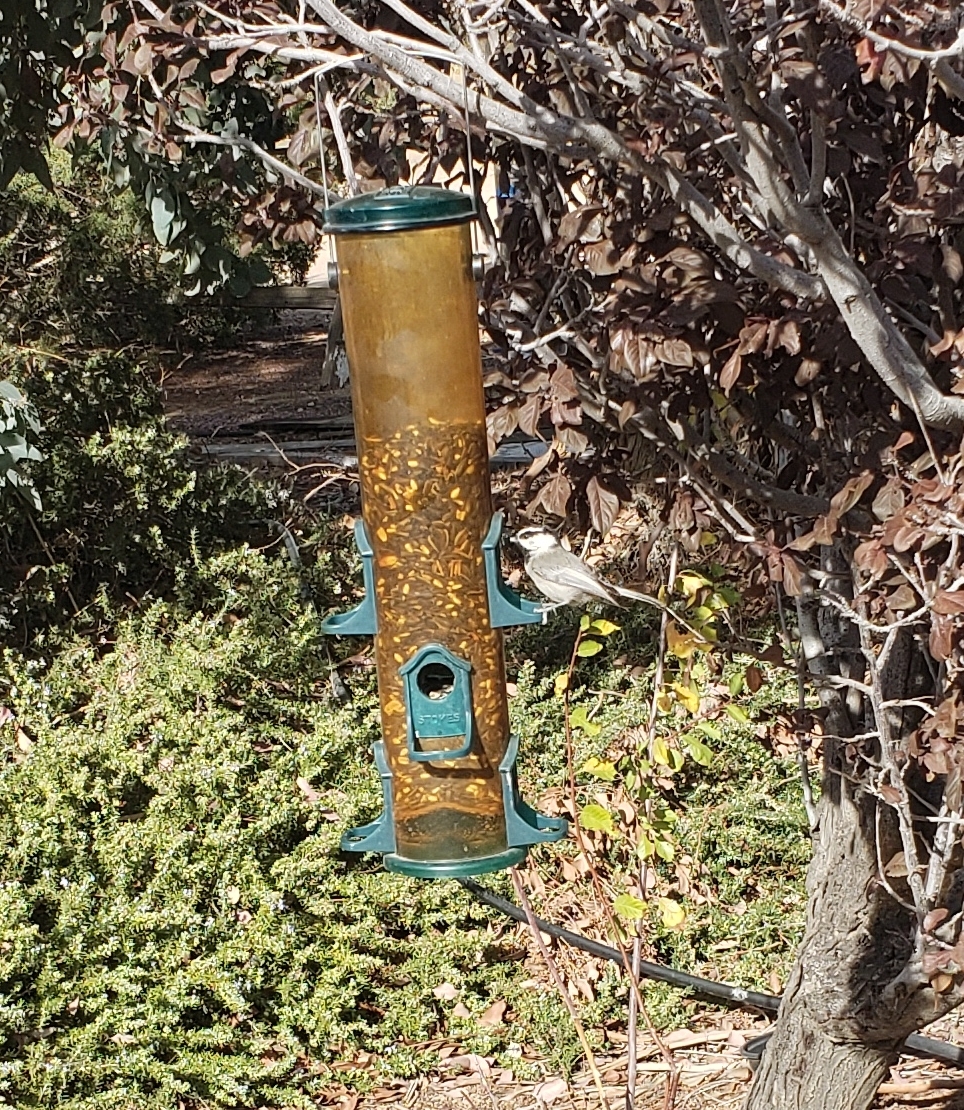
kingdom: Animalia
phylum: Chordata
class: Aves
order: Passeriformes
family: Paridae
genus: Poecile
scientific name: Poecile gambeli
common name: Mountain chickadee
